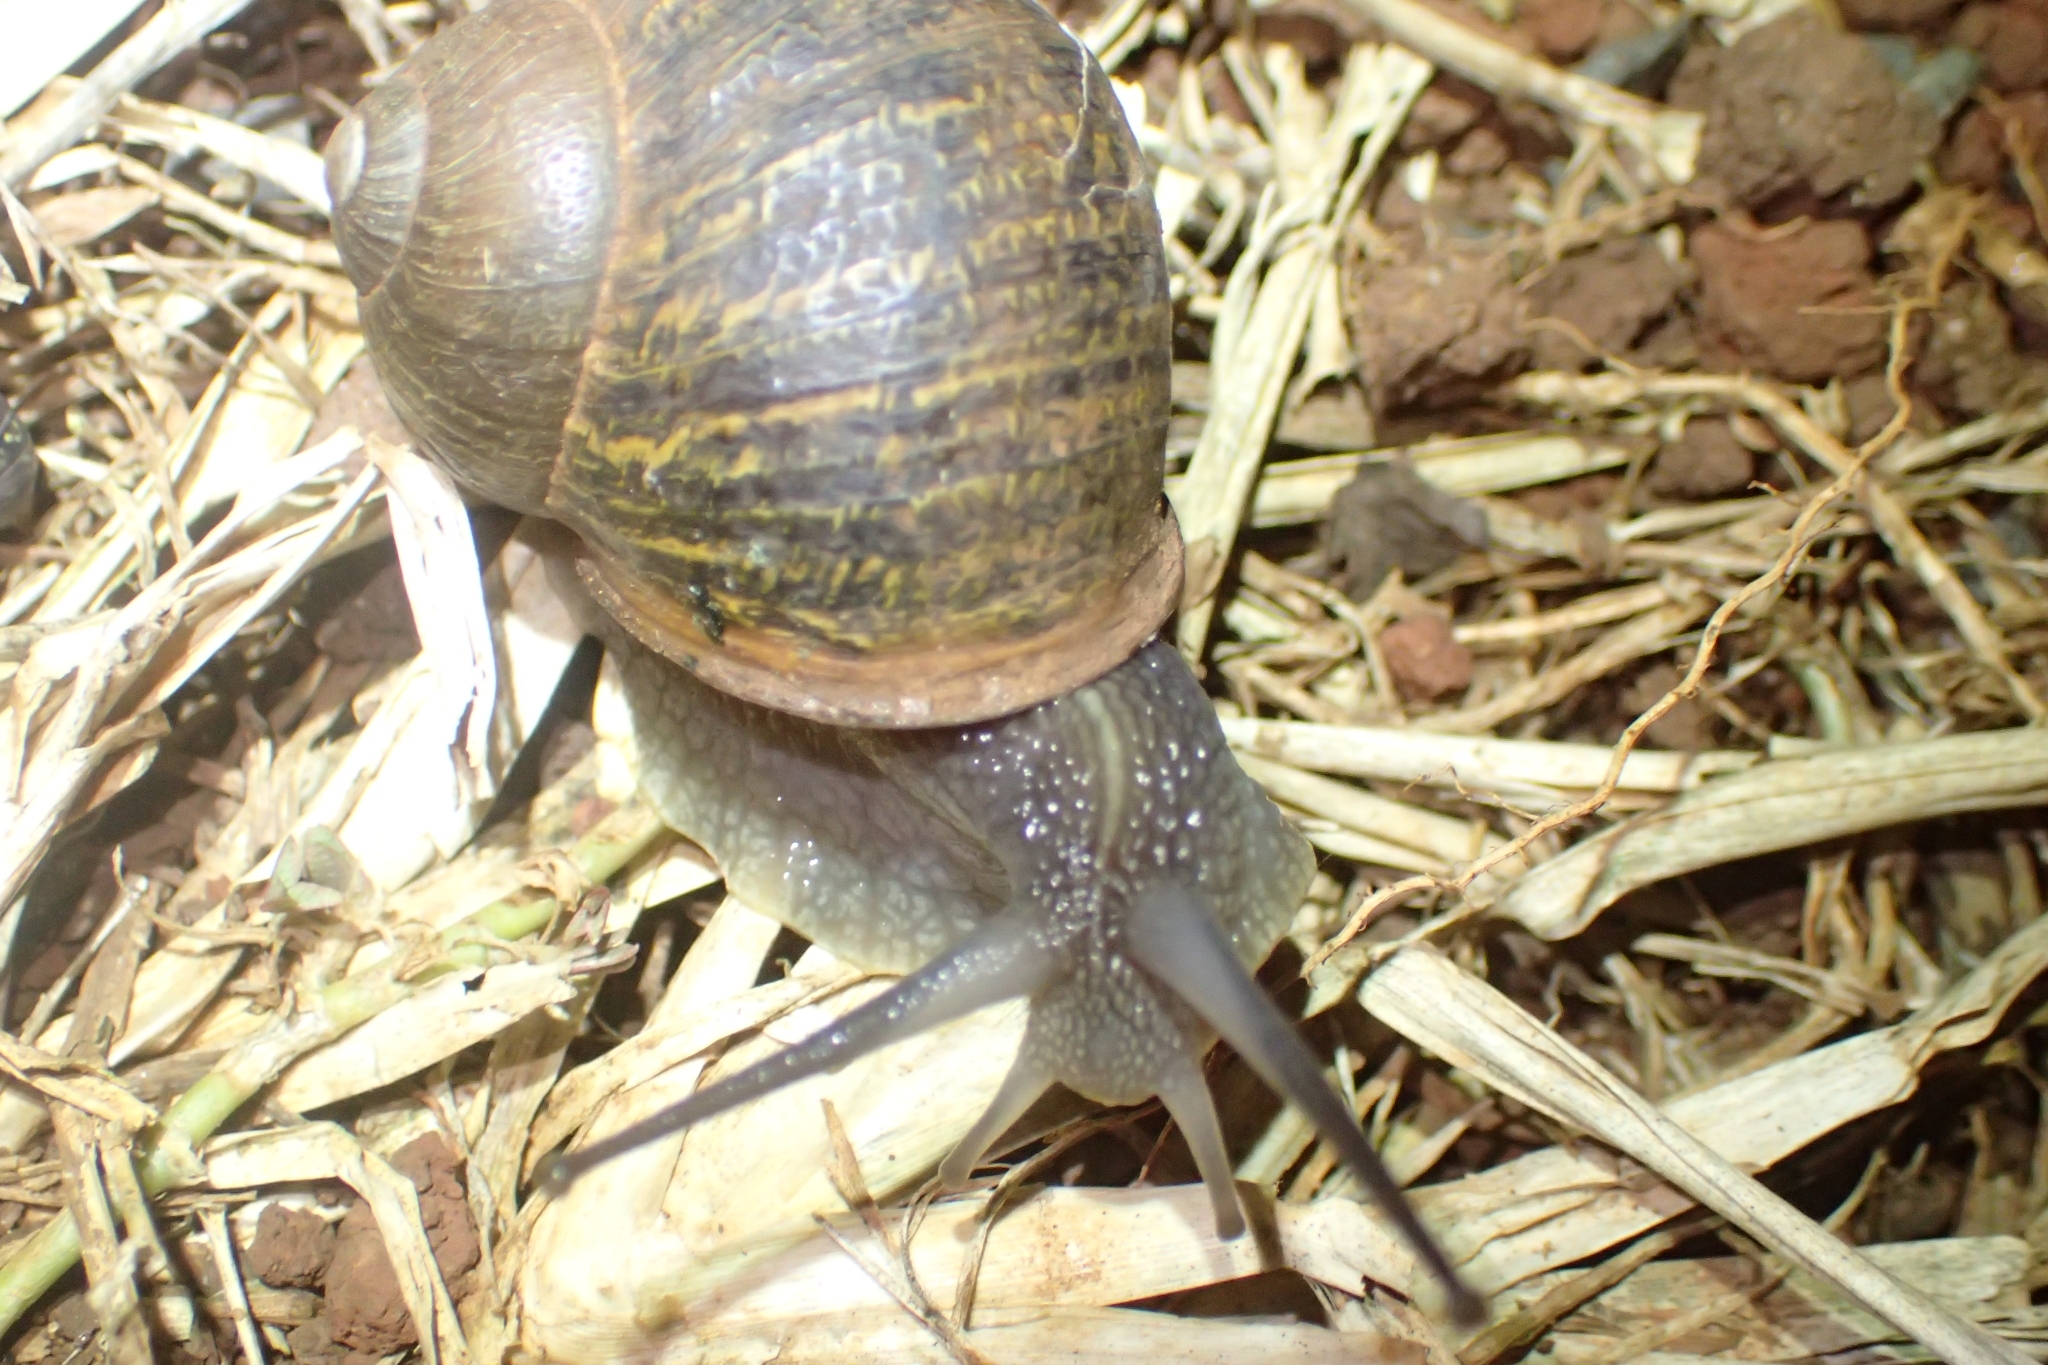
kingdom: Animalia
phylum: Mollusca
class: Gastropoda
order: Stylommatophora
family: Helicidae
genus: Cornu
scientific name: Cornu aspersum
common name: Brown garden snail
